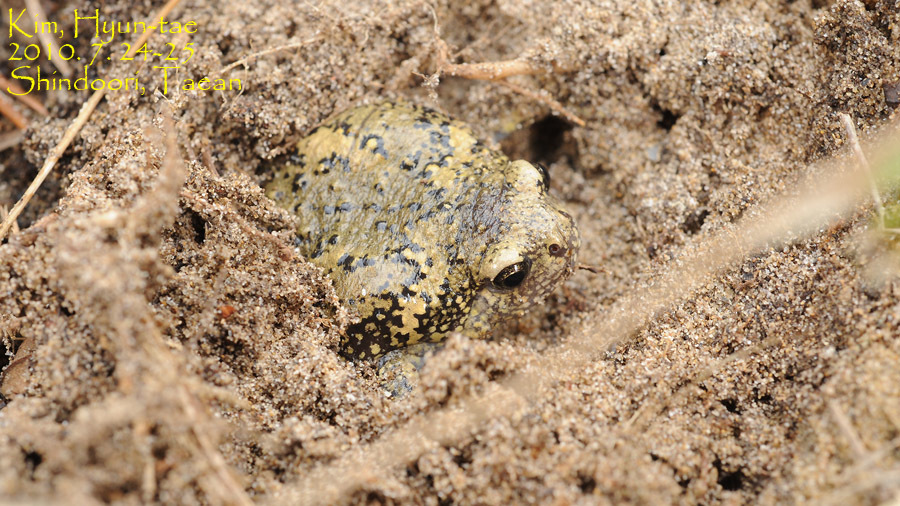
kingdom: Animalia
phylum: Chordata
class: Amphibia
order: Anura
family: Microhylidae
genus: Kaloula
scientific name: Kaloula borealis
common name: Boreal digging frog
